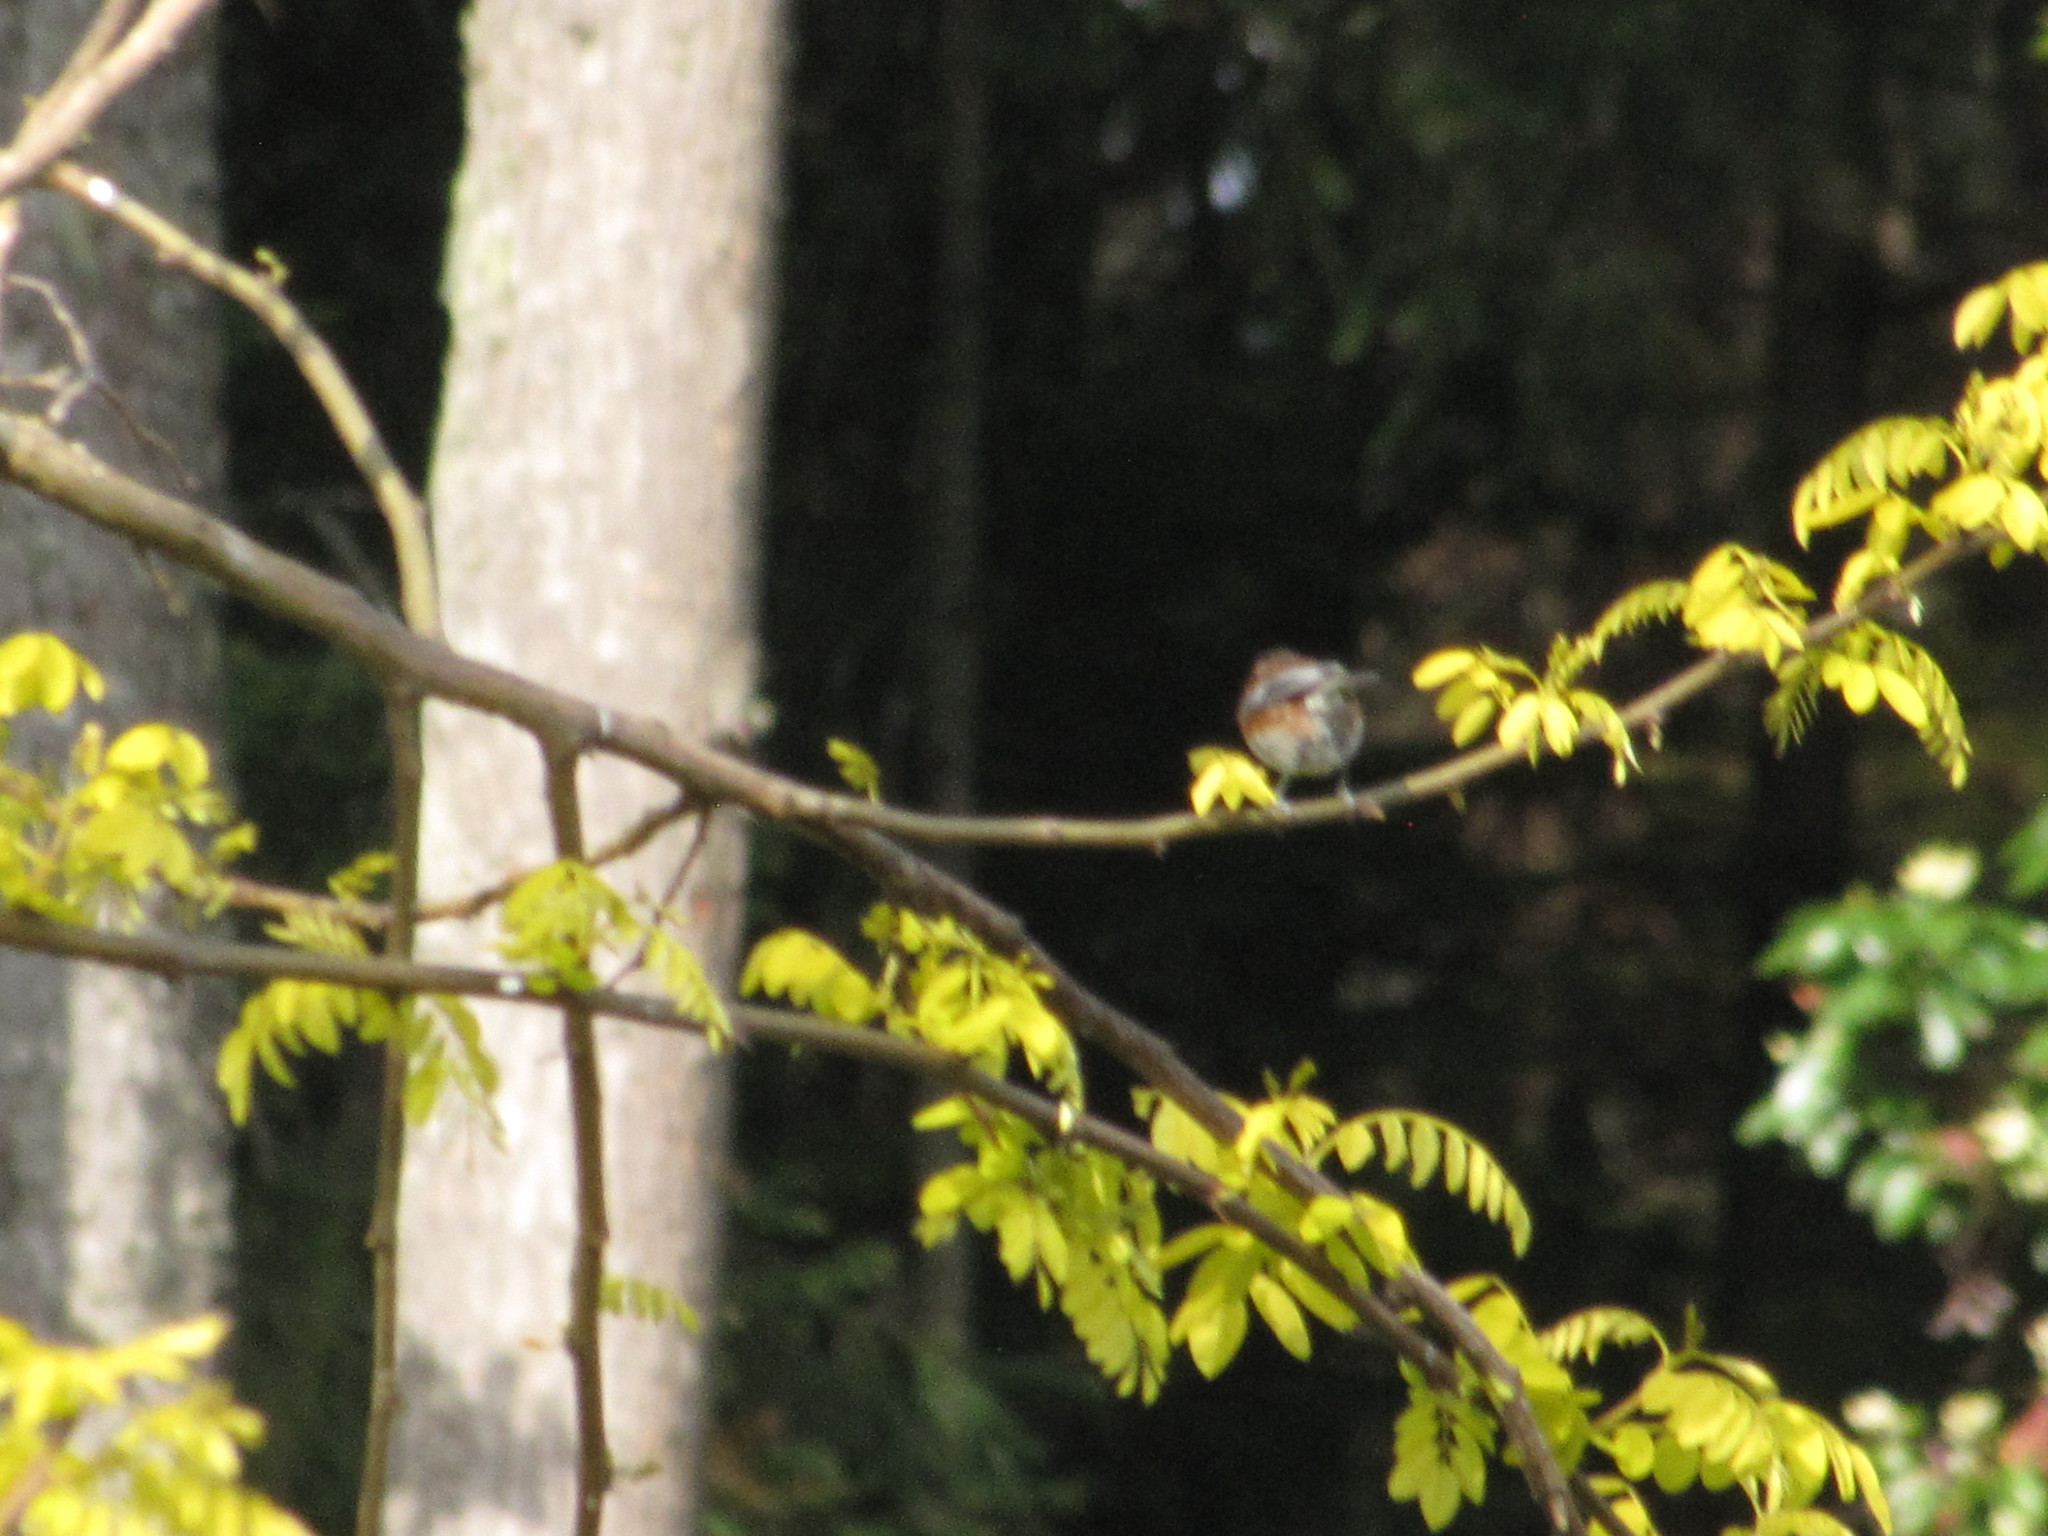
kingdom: Animalia
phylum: Chordata
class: Aves
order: Passeriformes
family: Paridae
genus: Poecile
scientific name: Poecile rufescens
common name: Chestnut-backed chickadee
